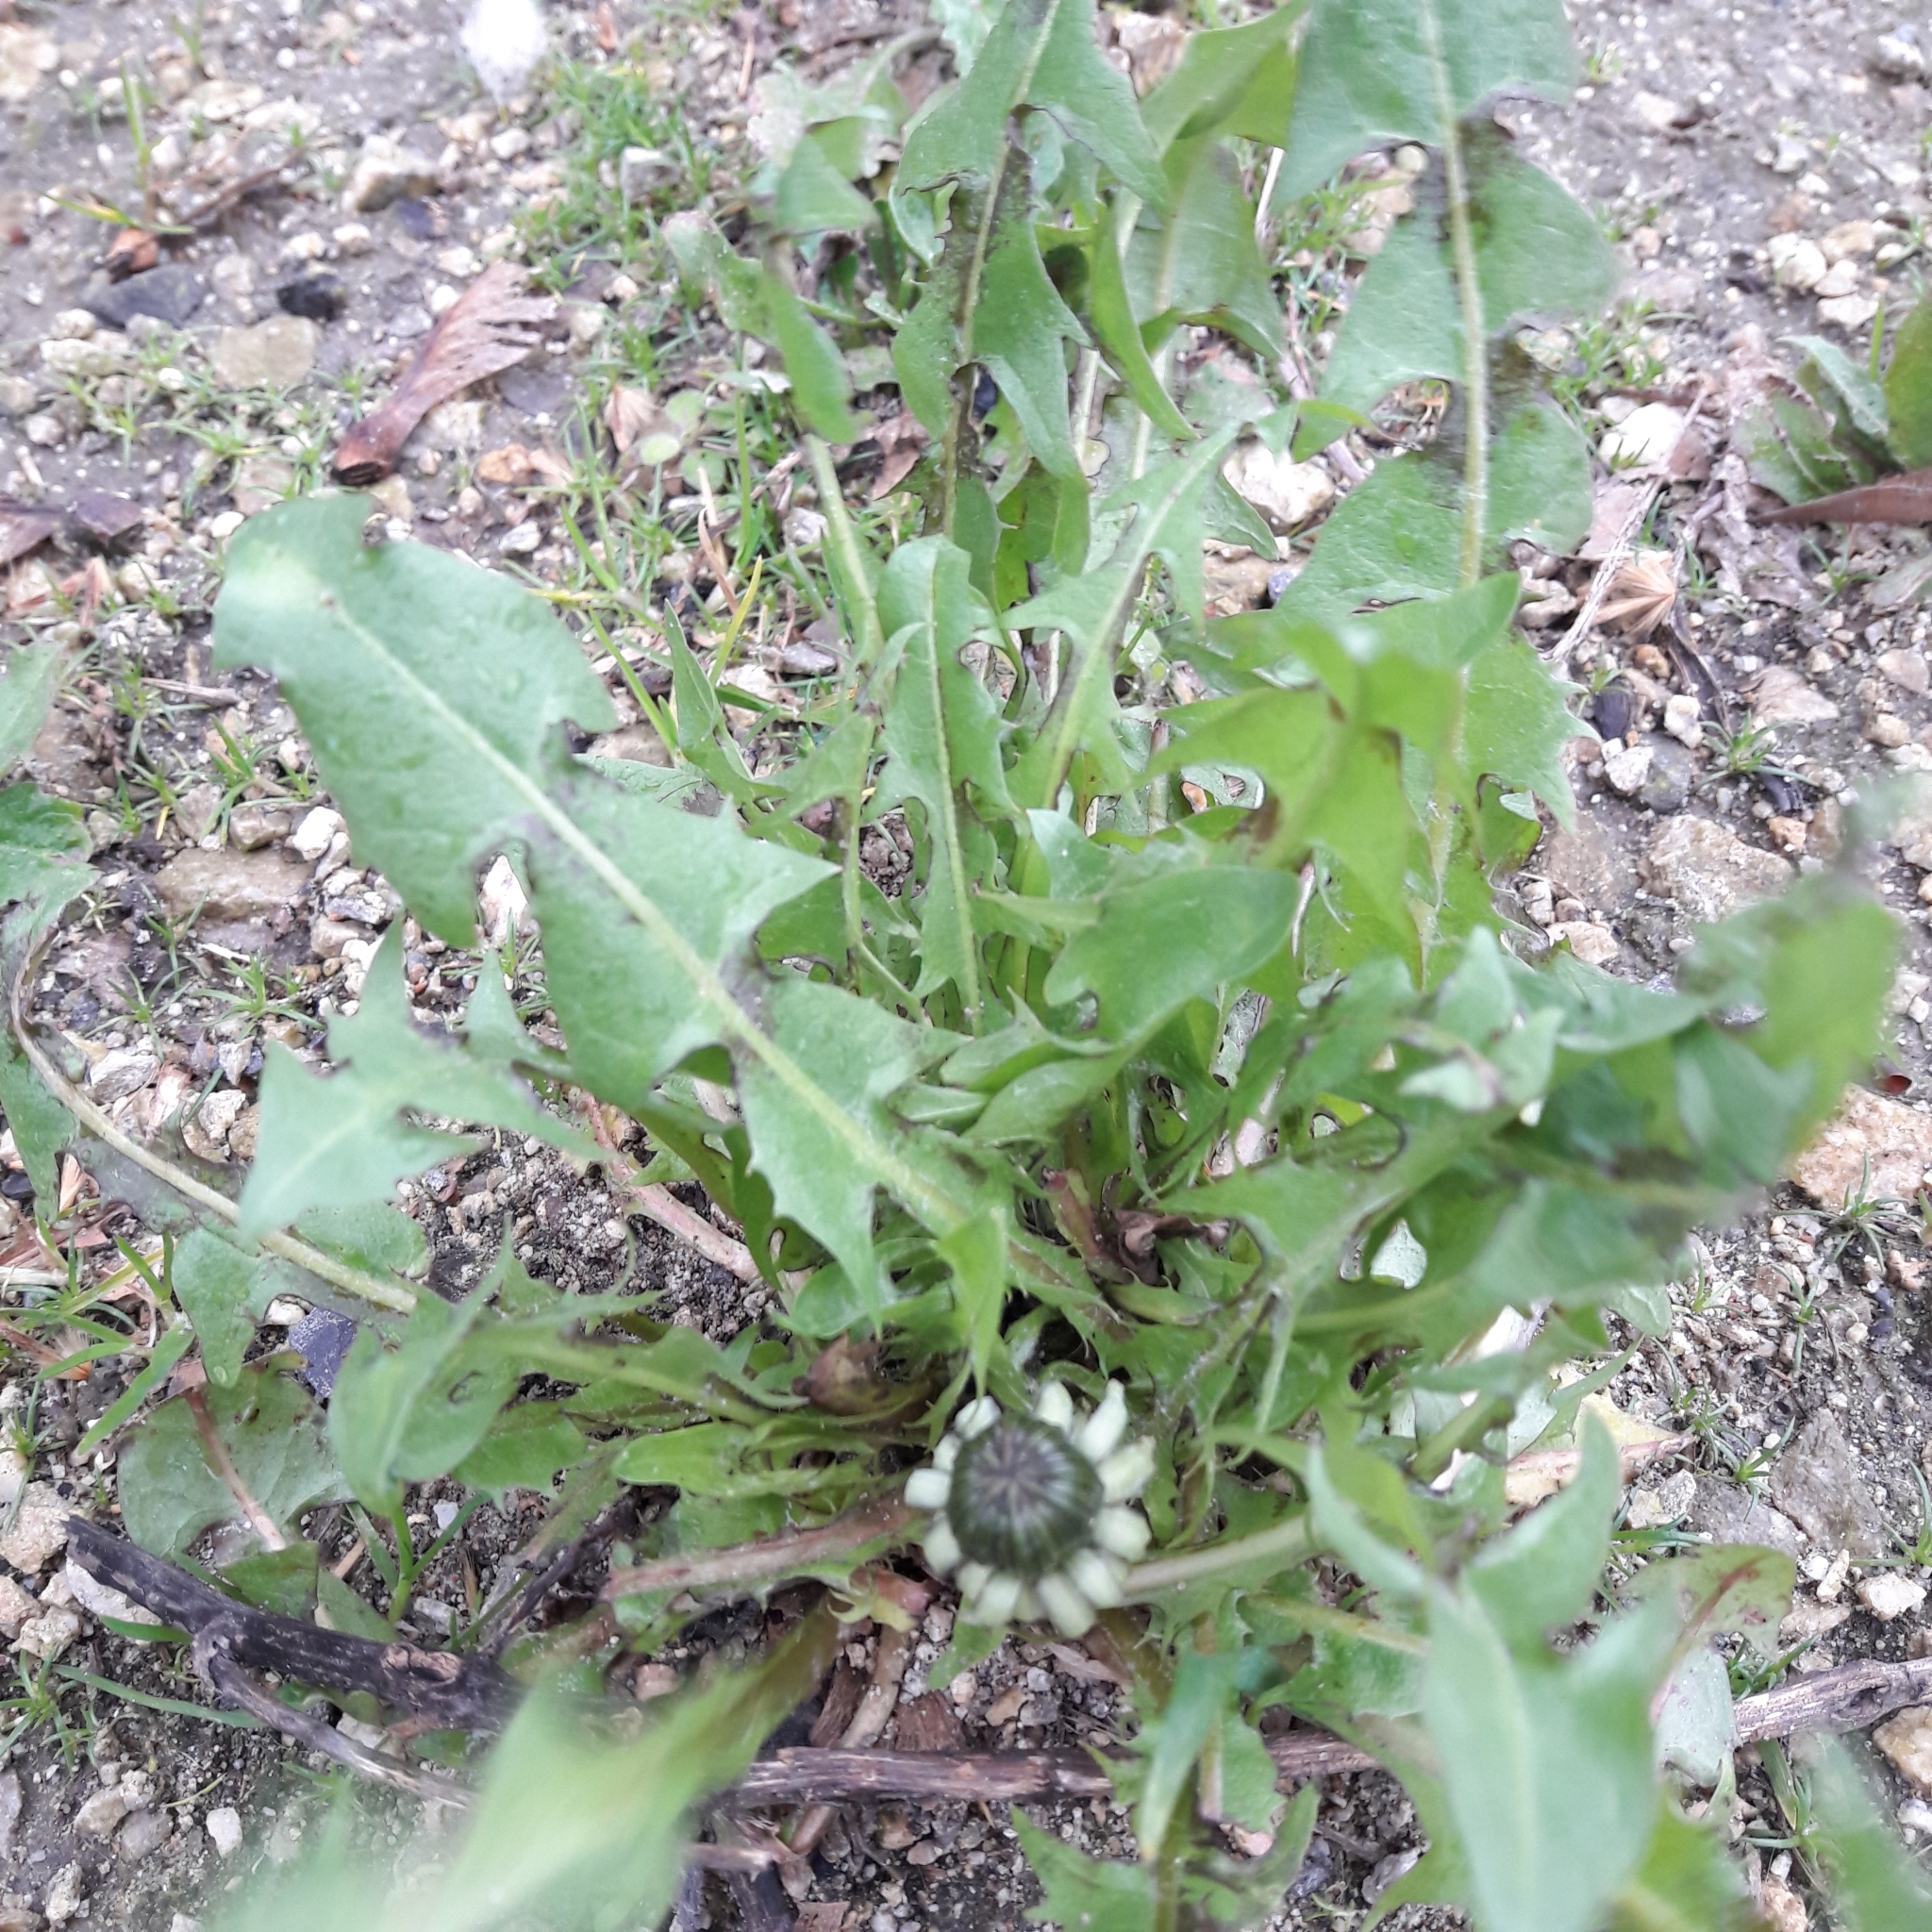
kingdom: Plantae
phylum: Tracheophyta
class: Magnoliopsida
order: Asterales
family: Asteraceae
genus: Taraxacum
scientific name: Taraxacum officinale
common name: Common dandelion
